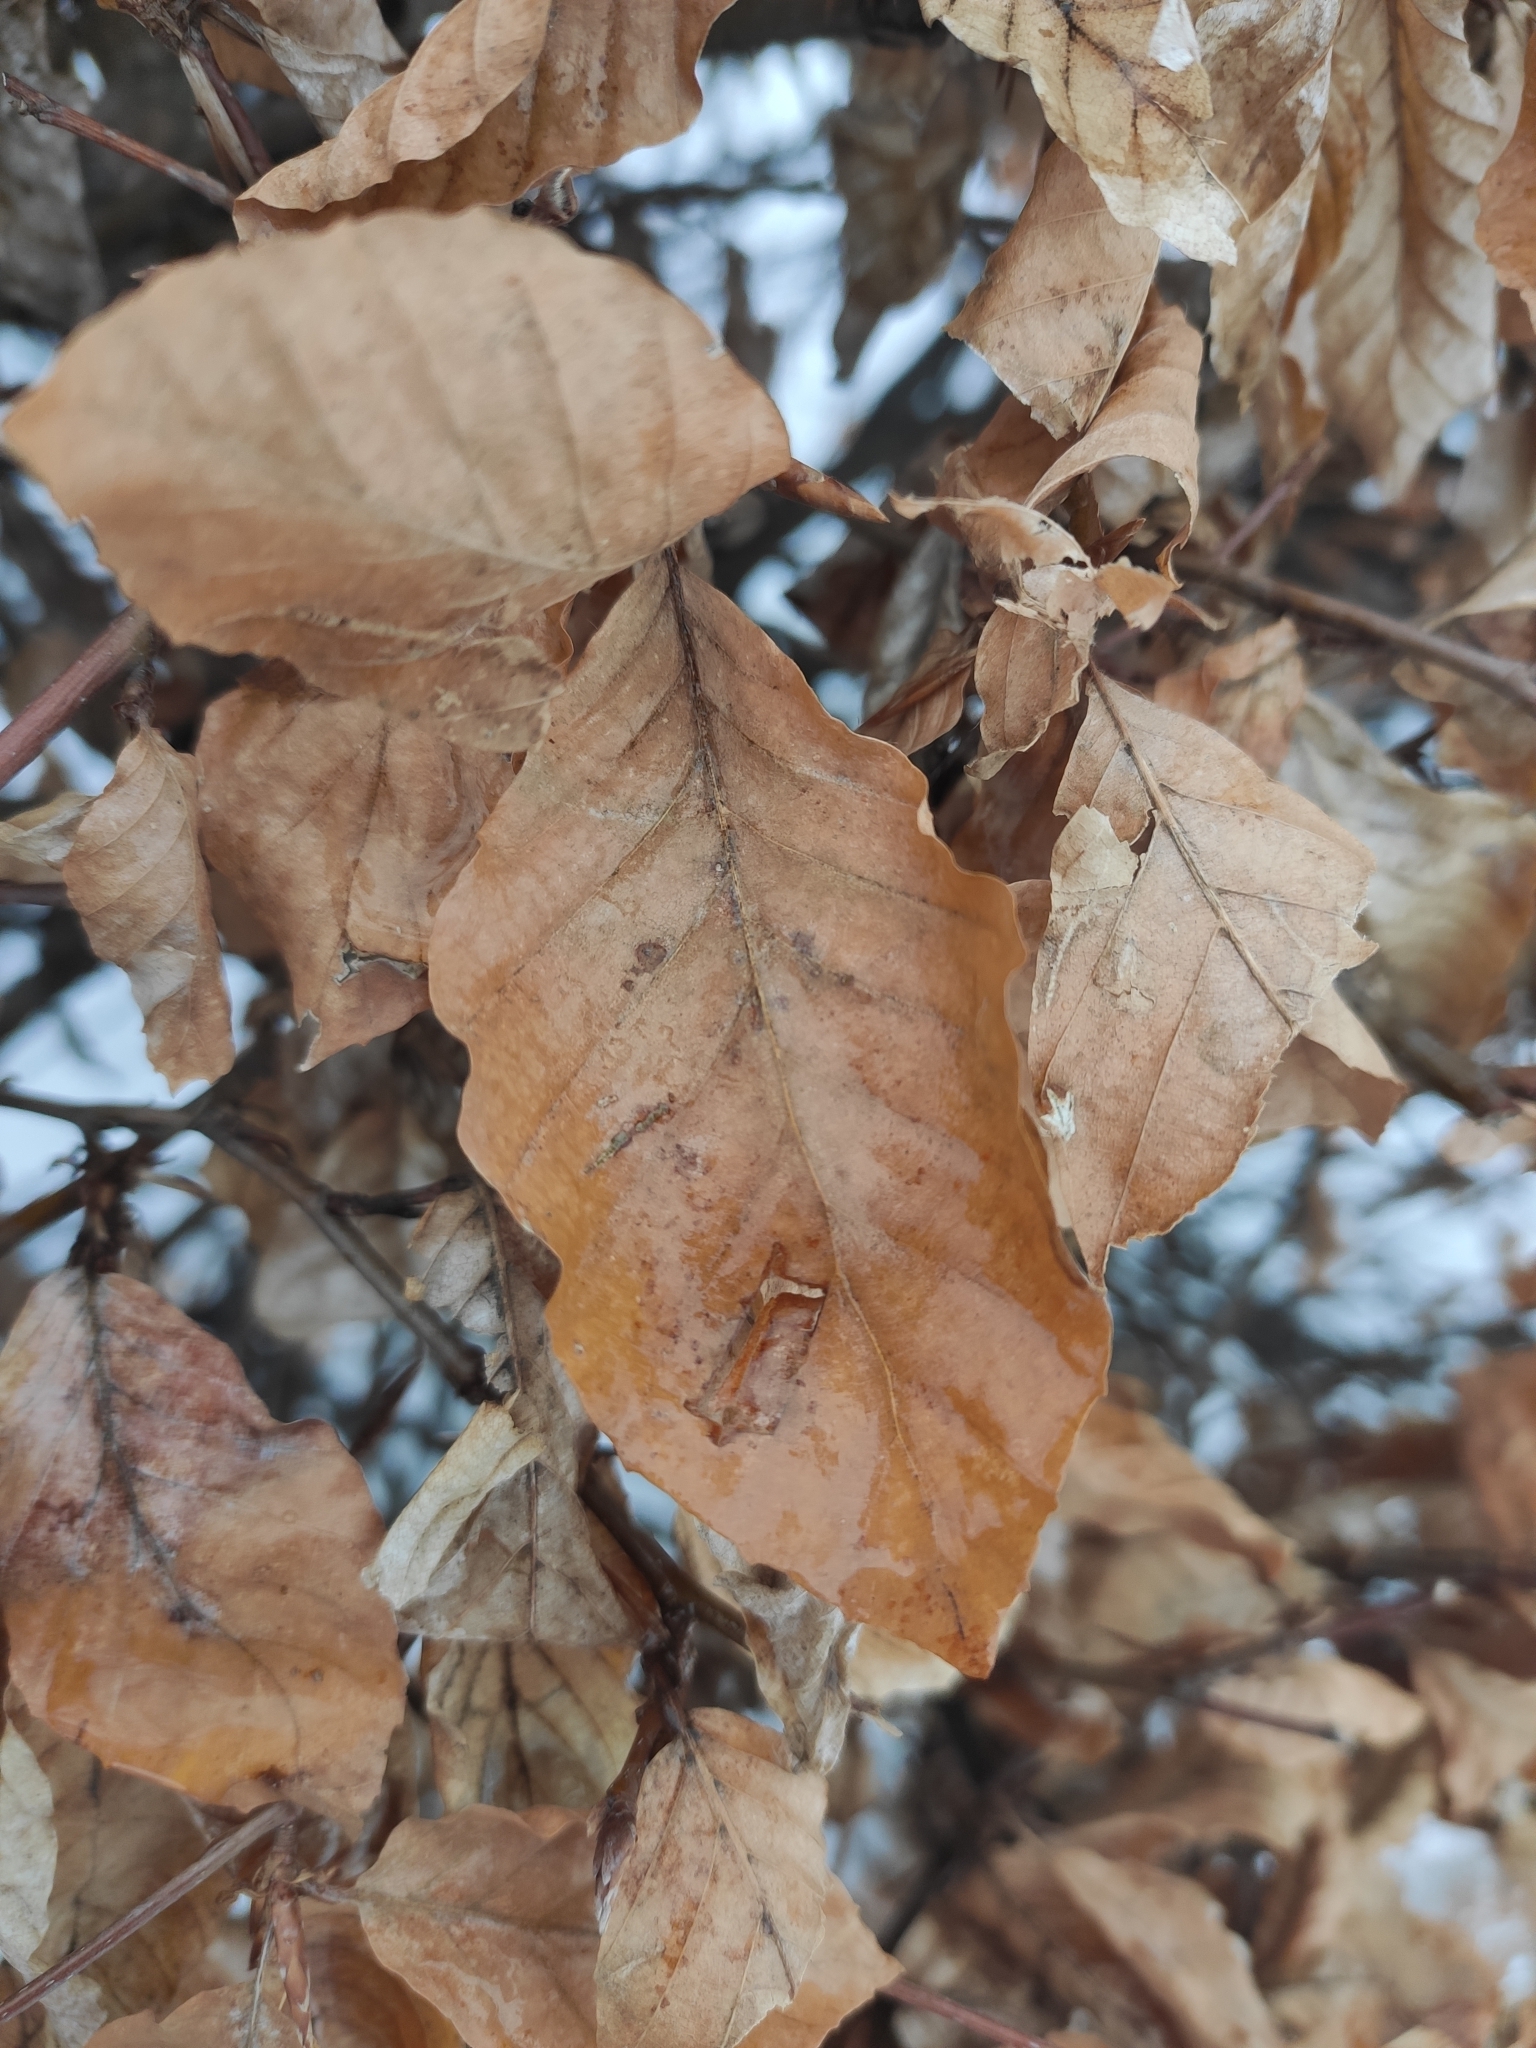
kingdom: Plantae
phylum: Tracheophyta
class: Magnoliopsida
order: Fagales
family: Fagaceae
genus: Fagus
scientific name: Fagus sylvatica
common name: Beech
